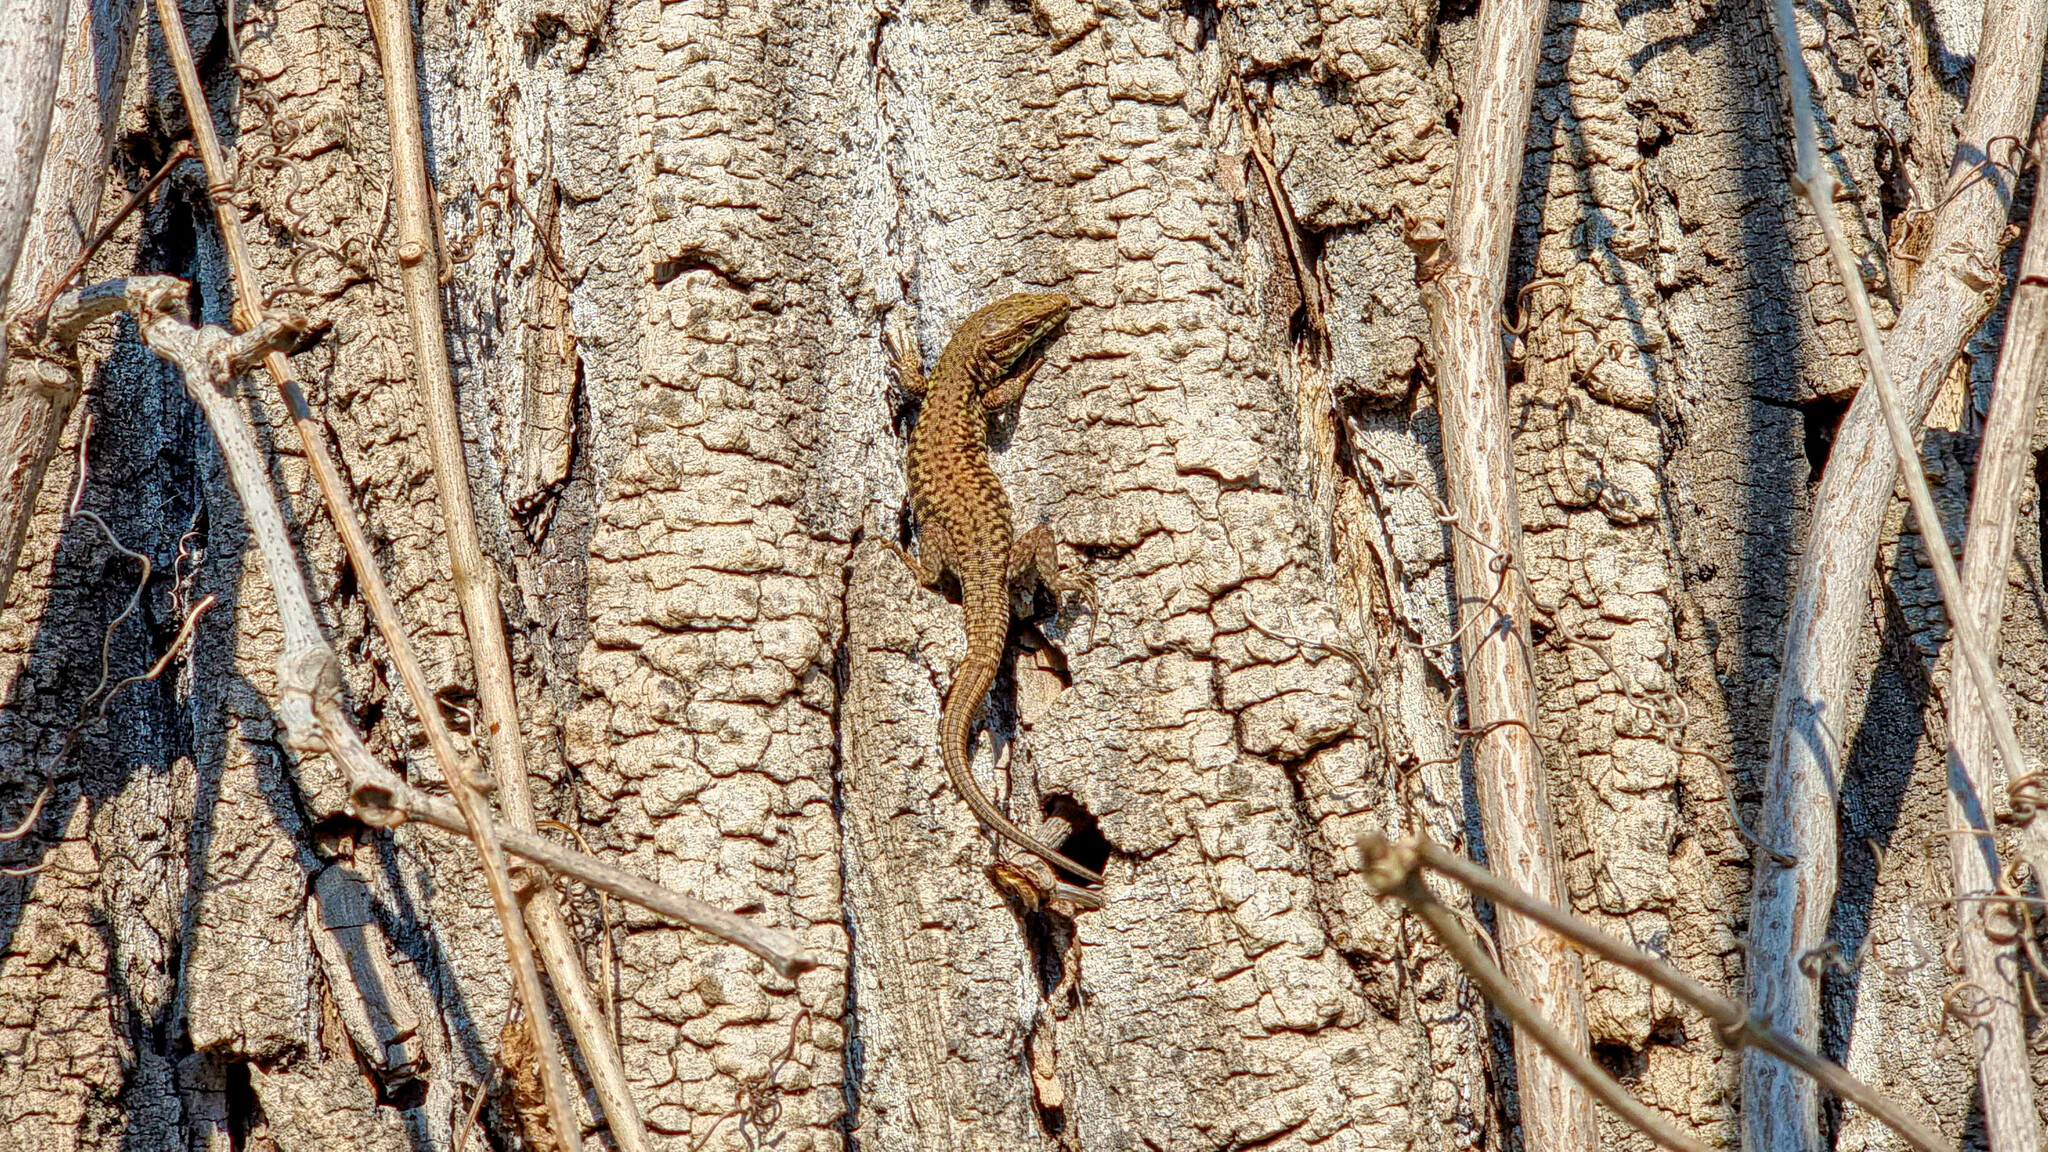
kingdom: Animalia
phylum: Chordata
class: Squamata
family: Lacertidae
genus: Podarcis
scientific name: Podarcis muralis
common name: Common wall lizard
